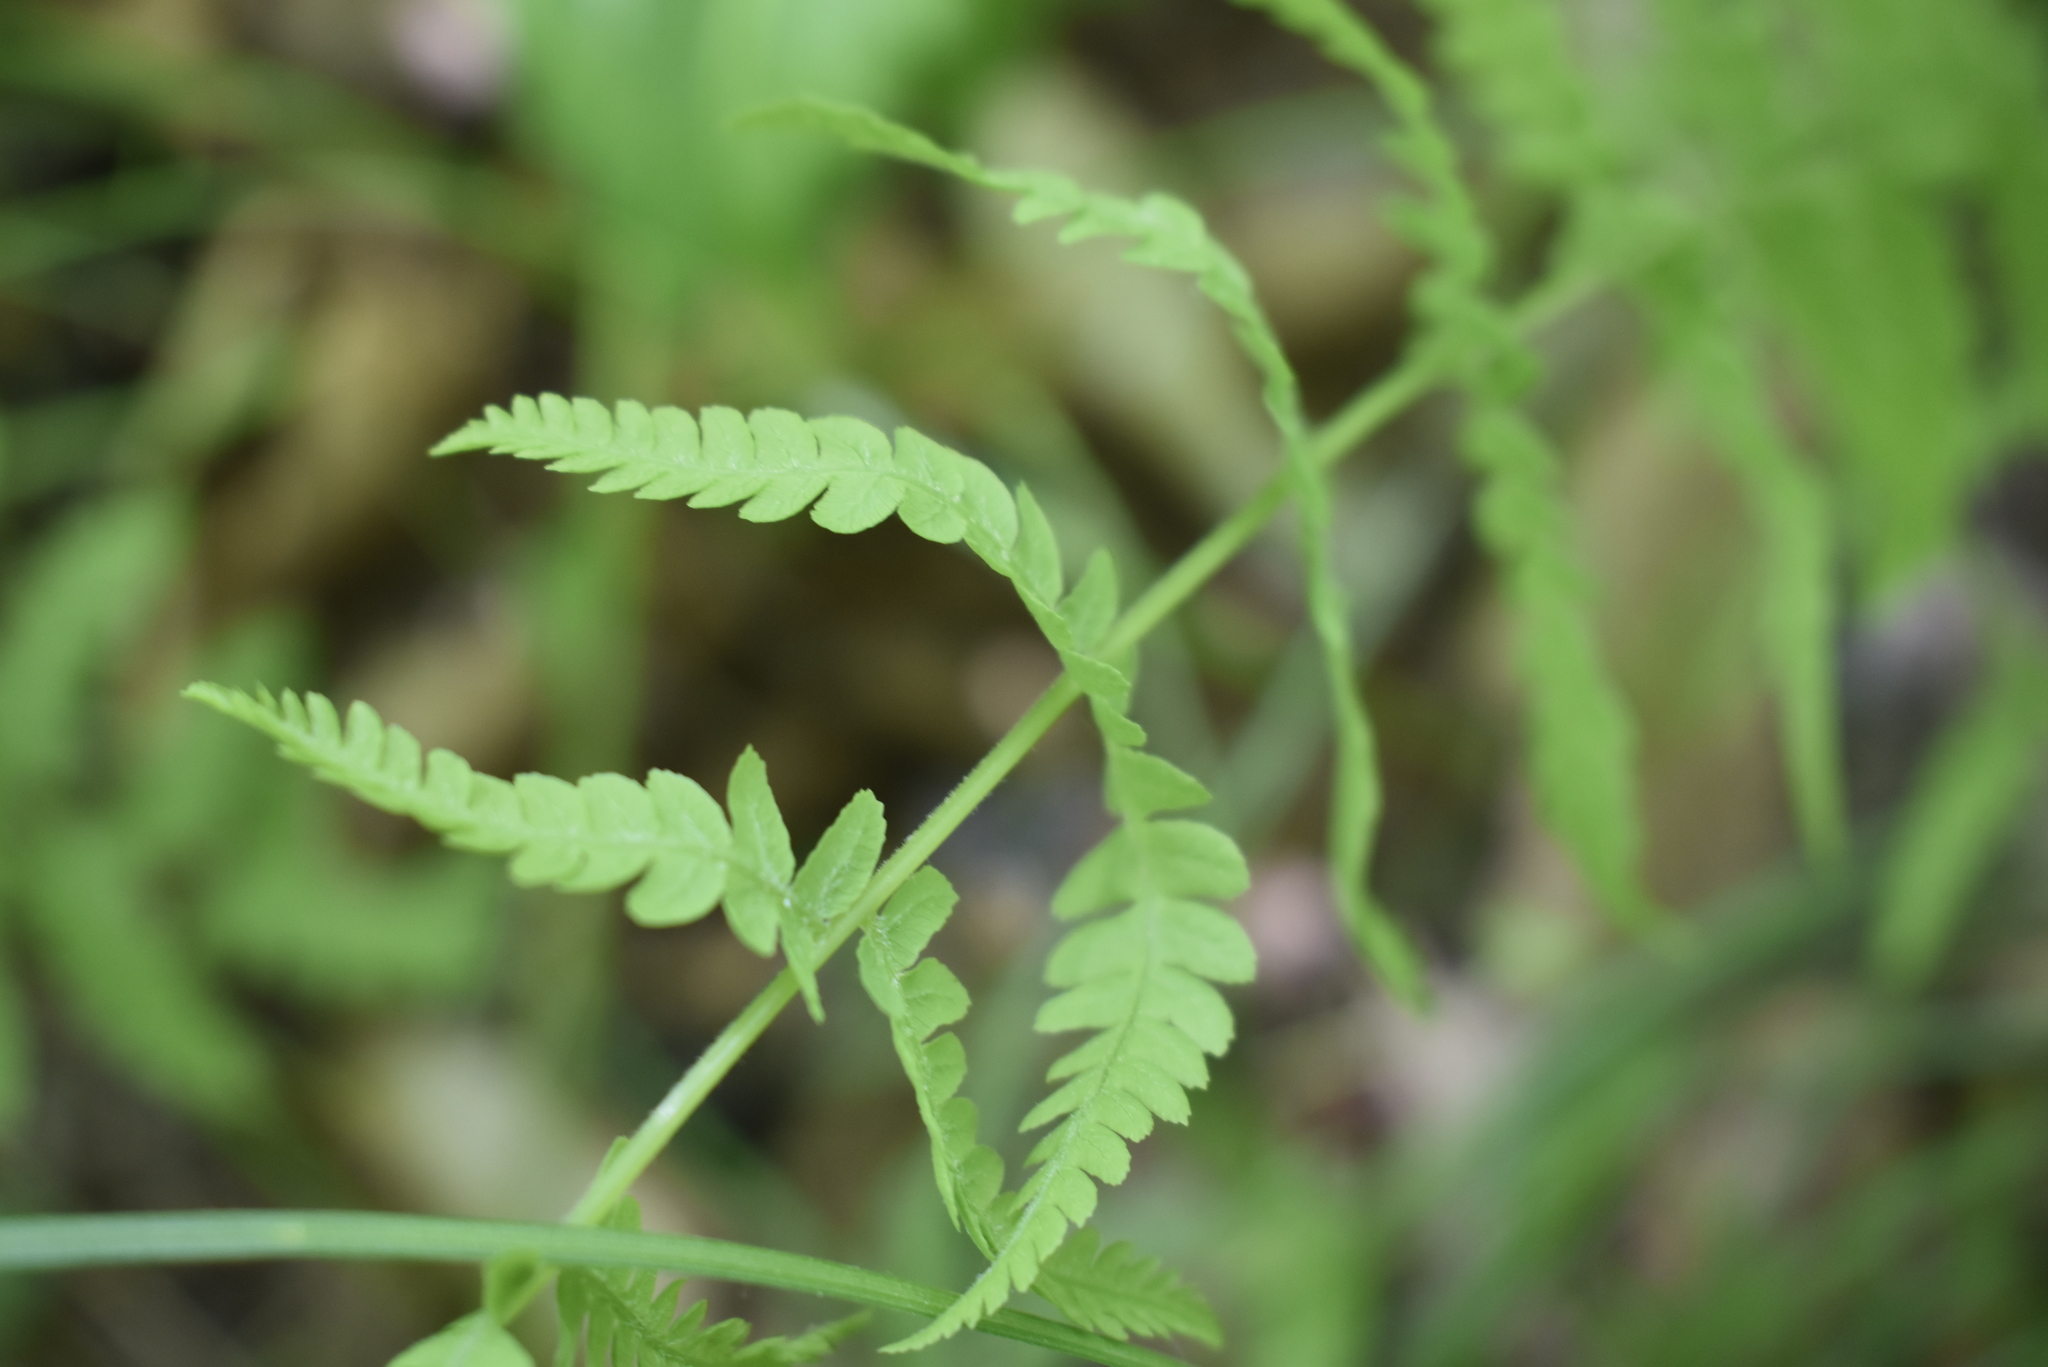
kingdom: Plantae
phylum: Tracheophyta
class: Polypodiopsida
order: Polypodiales
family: Thelypteridaceae
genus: Thelypteris
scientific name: Thelypteris palustris
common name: Marsh fern
